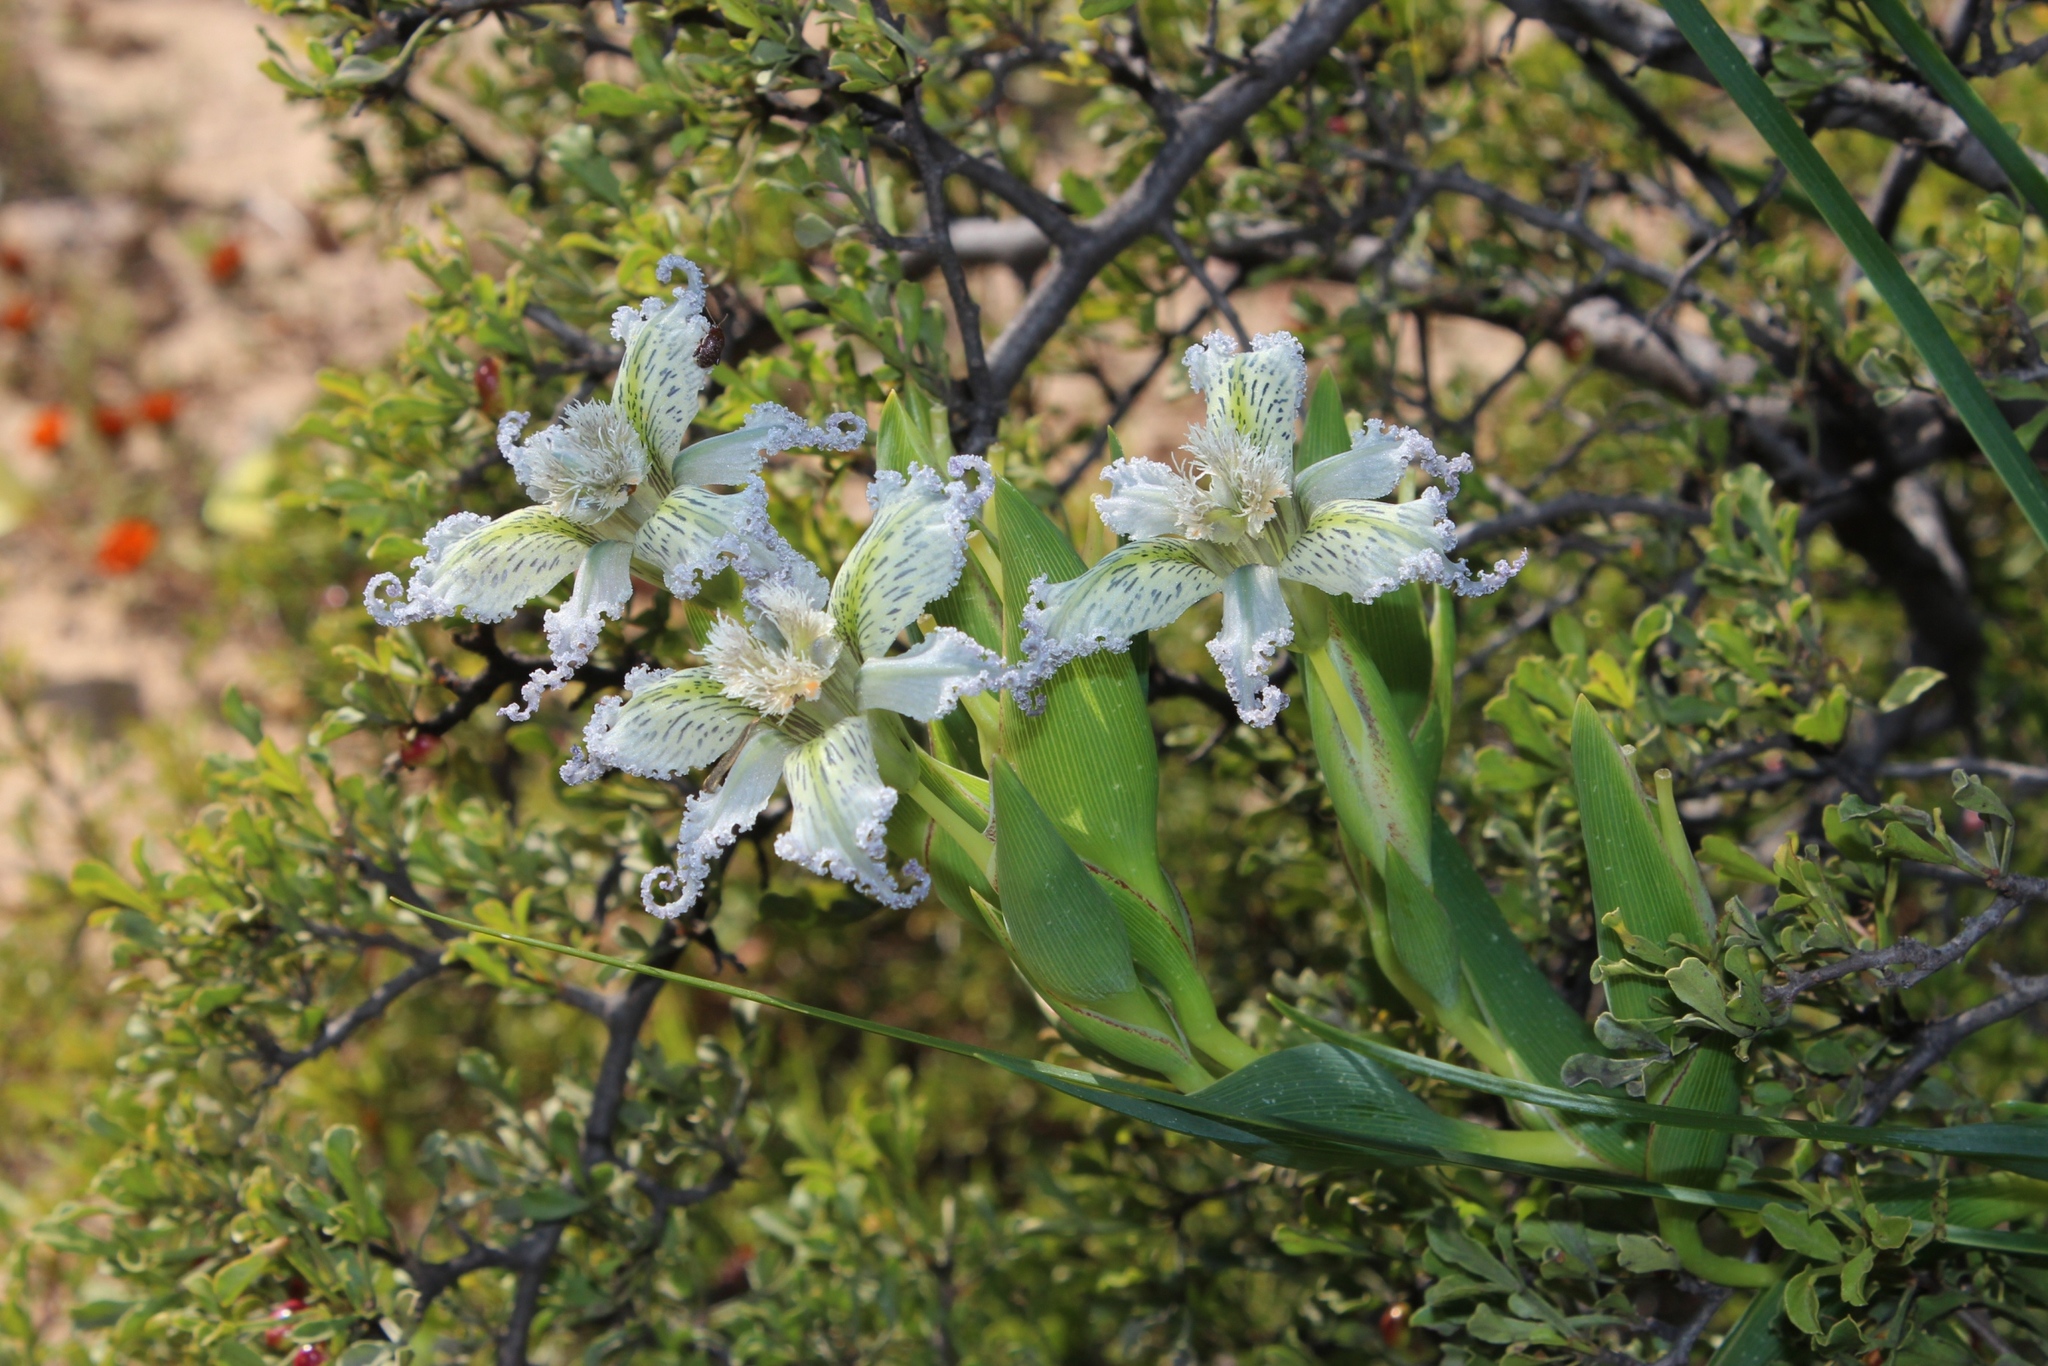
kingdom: Plantae
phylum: Tracheophyta
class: Liliopsida
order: Asparagales
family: Iridaceae
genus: Ferraria
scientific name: Ferraria ferrariola
